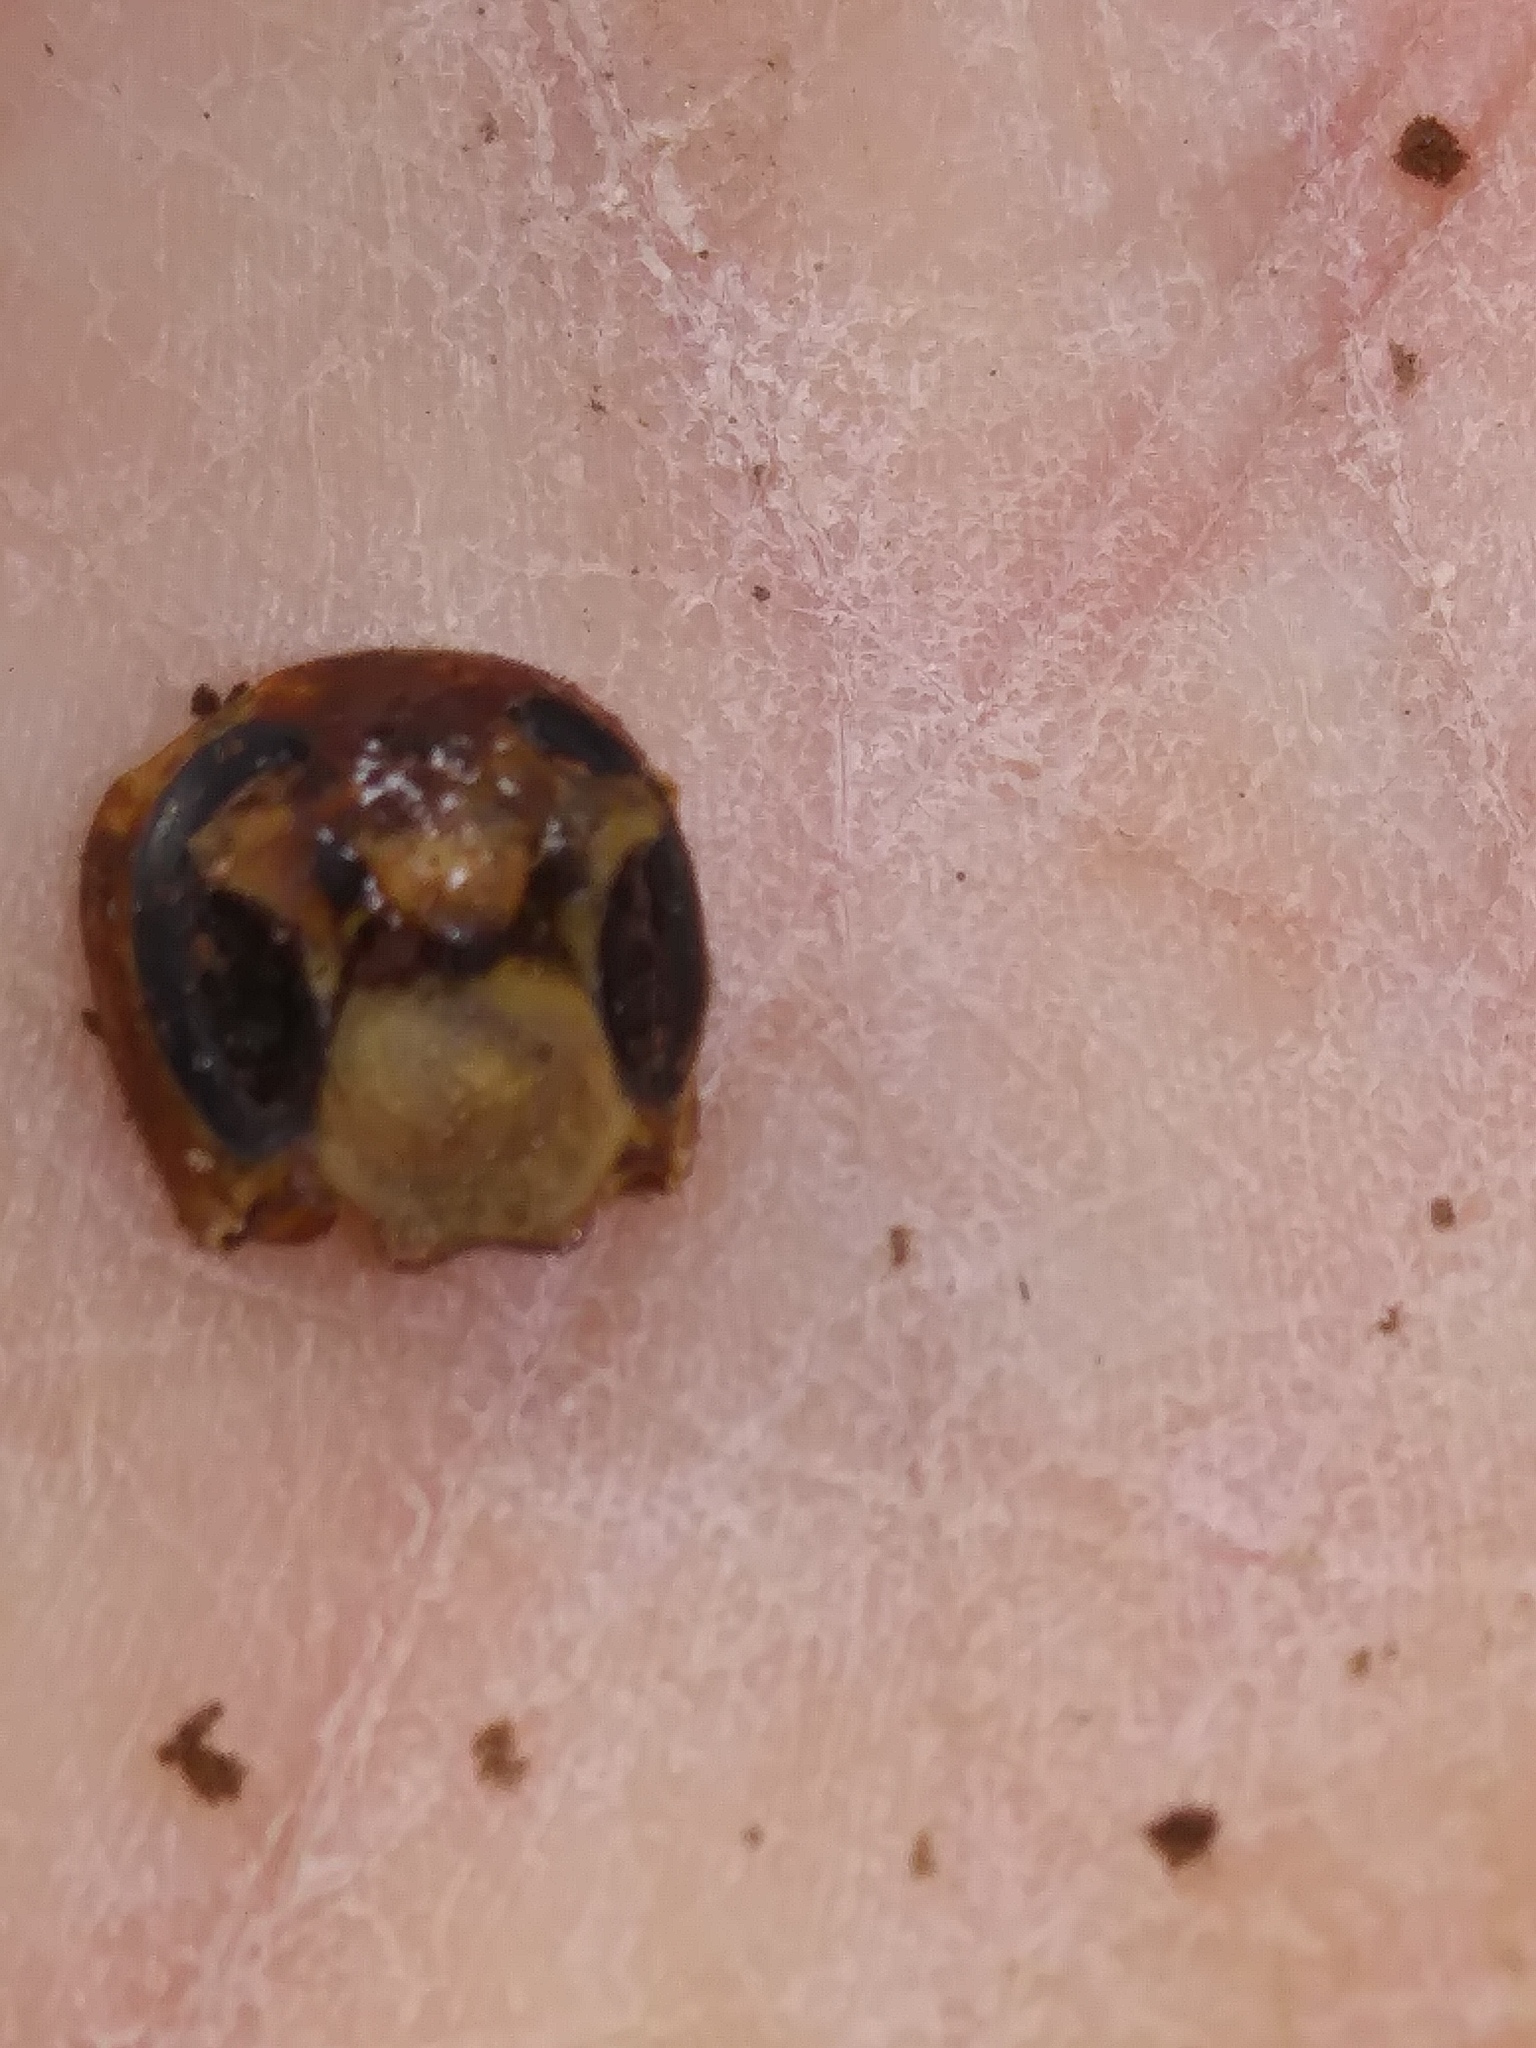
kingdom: Animalia
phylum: Arthropoda
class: Insecta
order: Hymenoptera
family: Vespidae
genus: Vespa
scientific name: Vespa crabro
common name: Hornet
